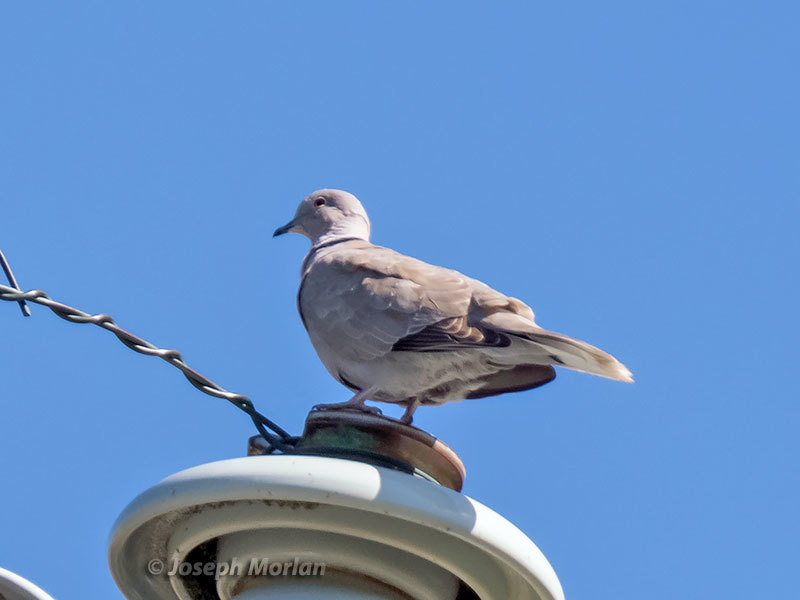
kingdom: Animalia
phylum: Chordata
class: Aves
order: Columbiformes
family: Columbidae
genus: Streptopelia
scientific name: Streptopelia decaocto
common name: Eurasian collared dove
